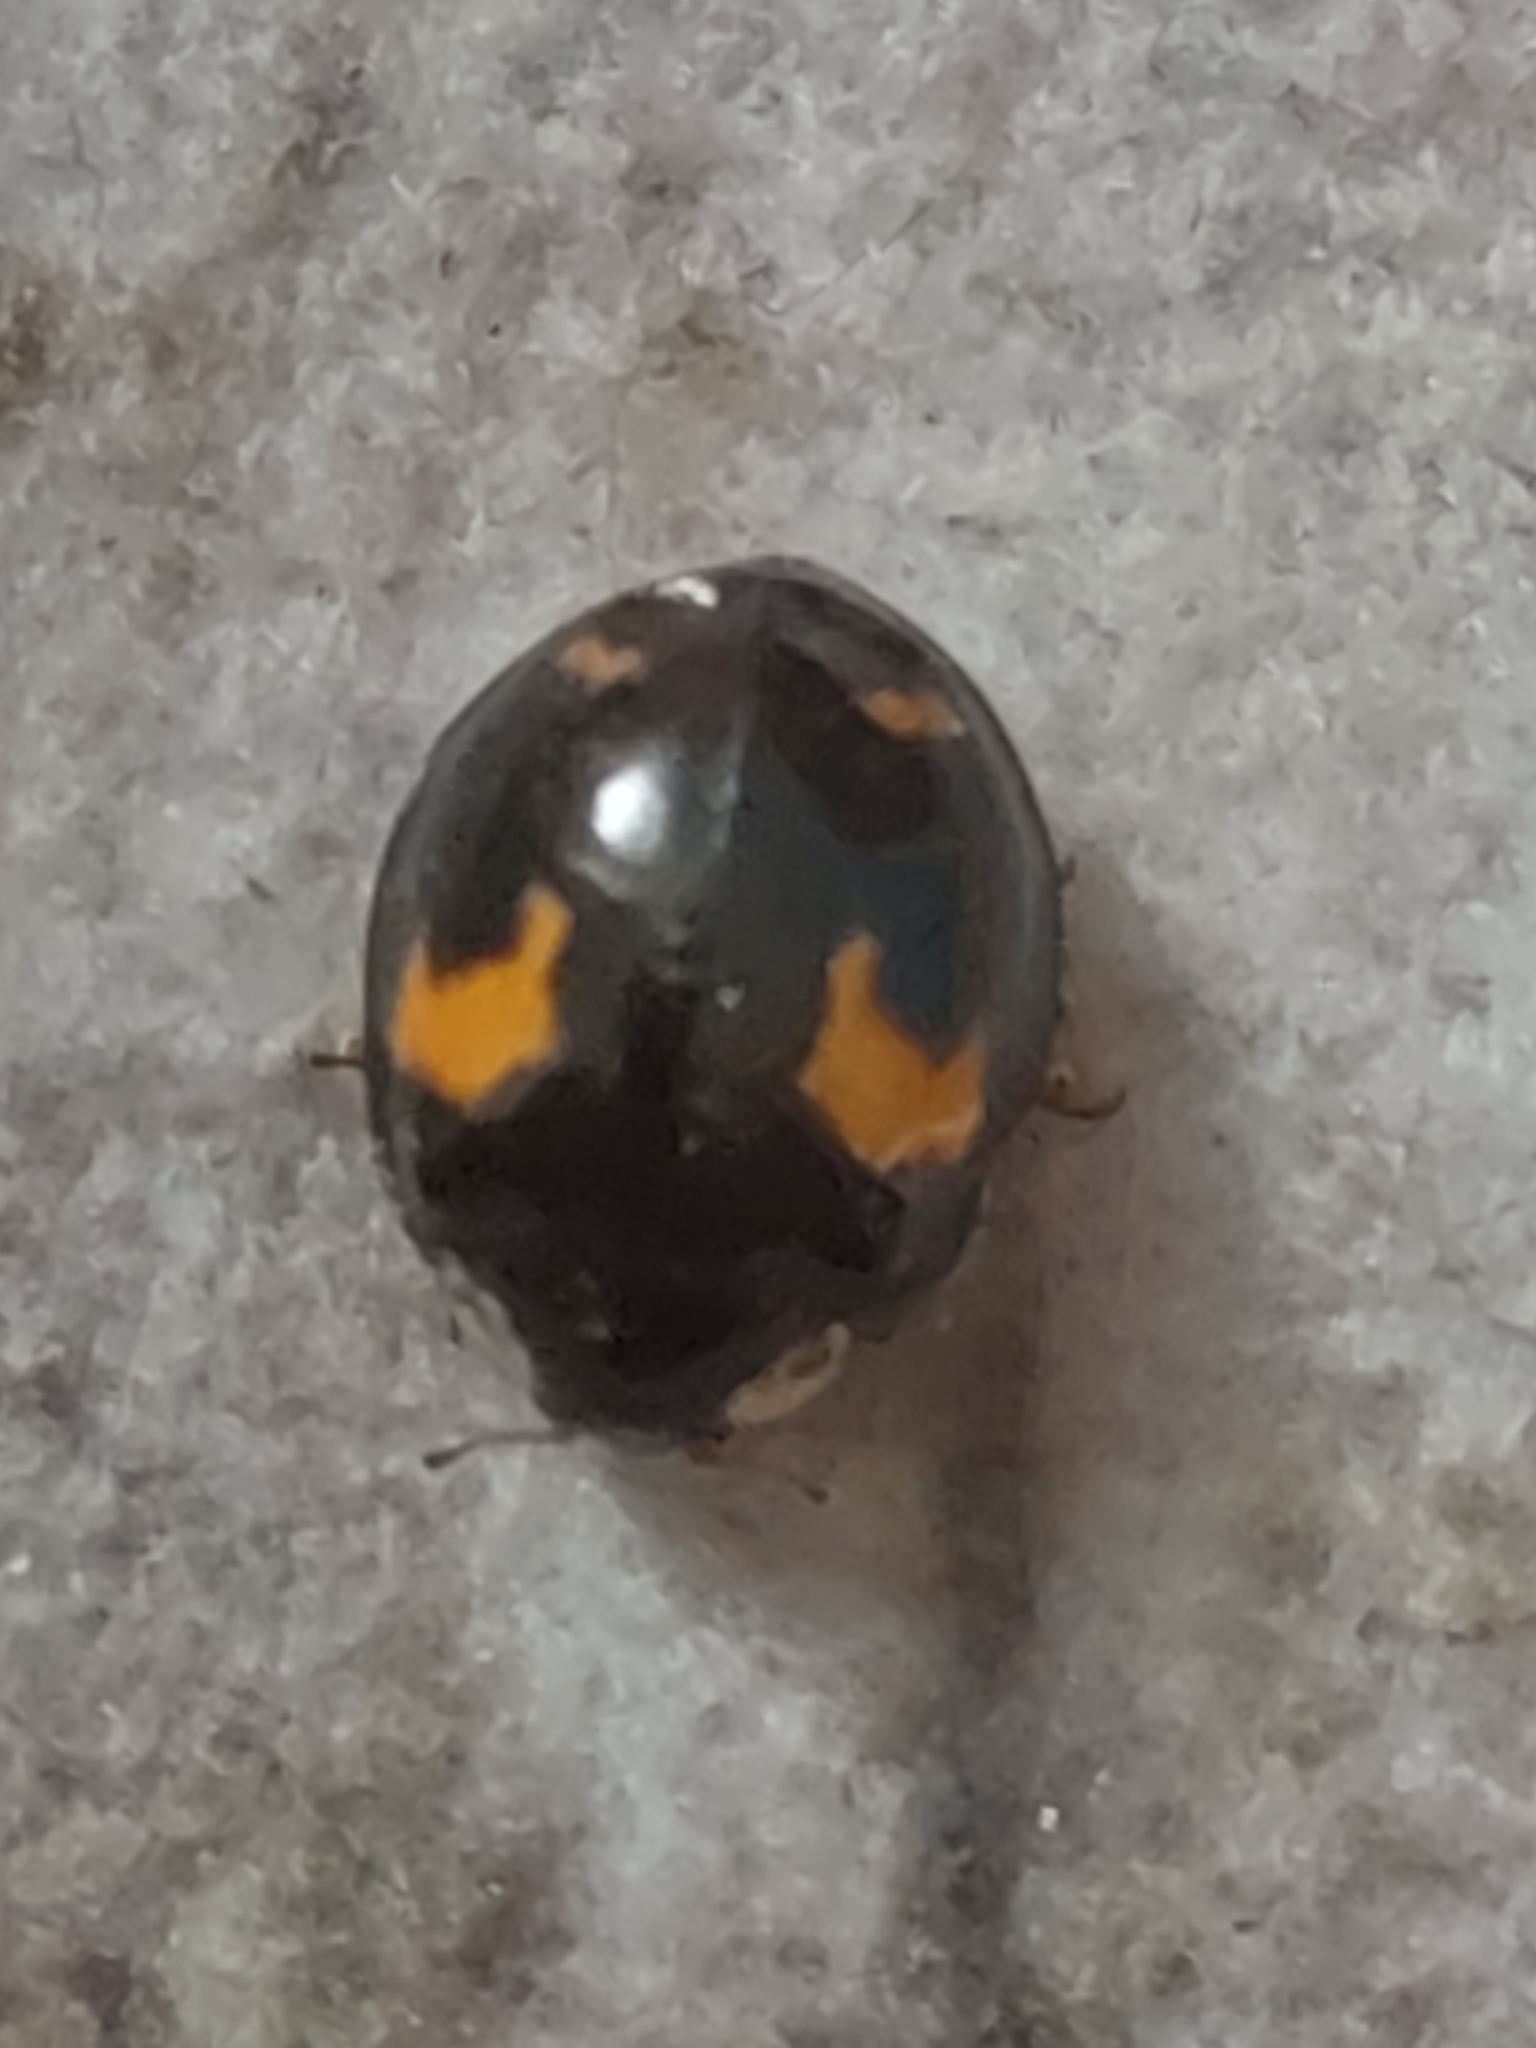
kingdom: Animalia
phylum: Arthropoda
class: Insecta
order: Coleoptera
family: Coccinellidae
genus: Harmonia
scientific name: Harmonia axyridis
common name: Harlequin ladybird
